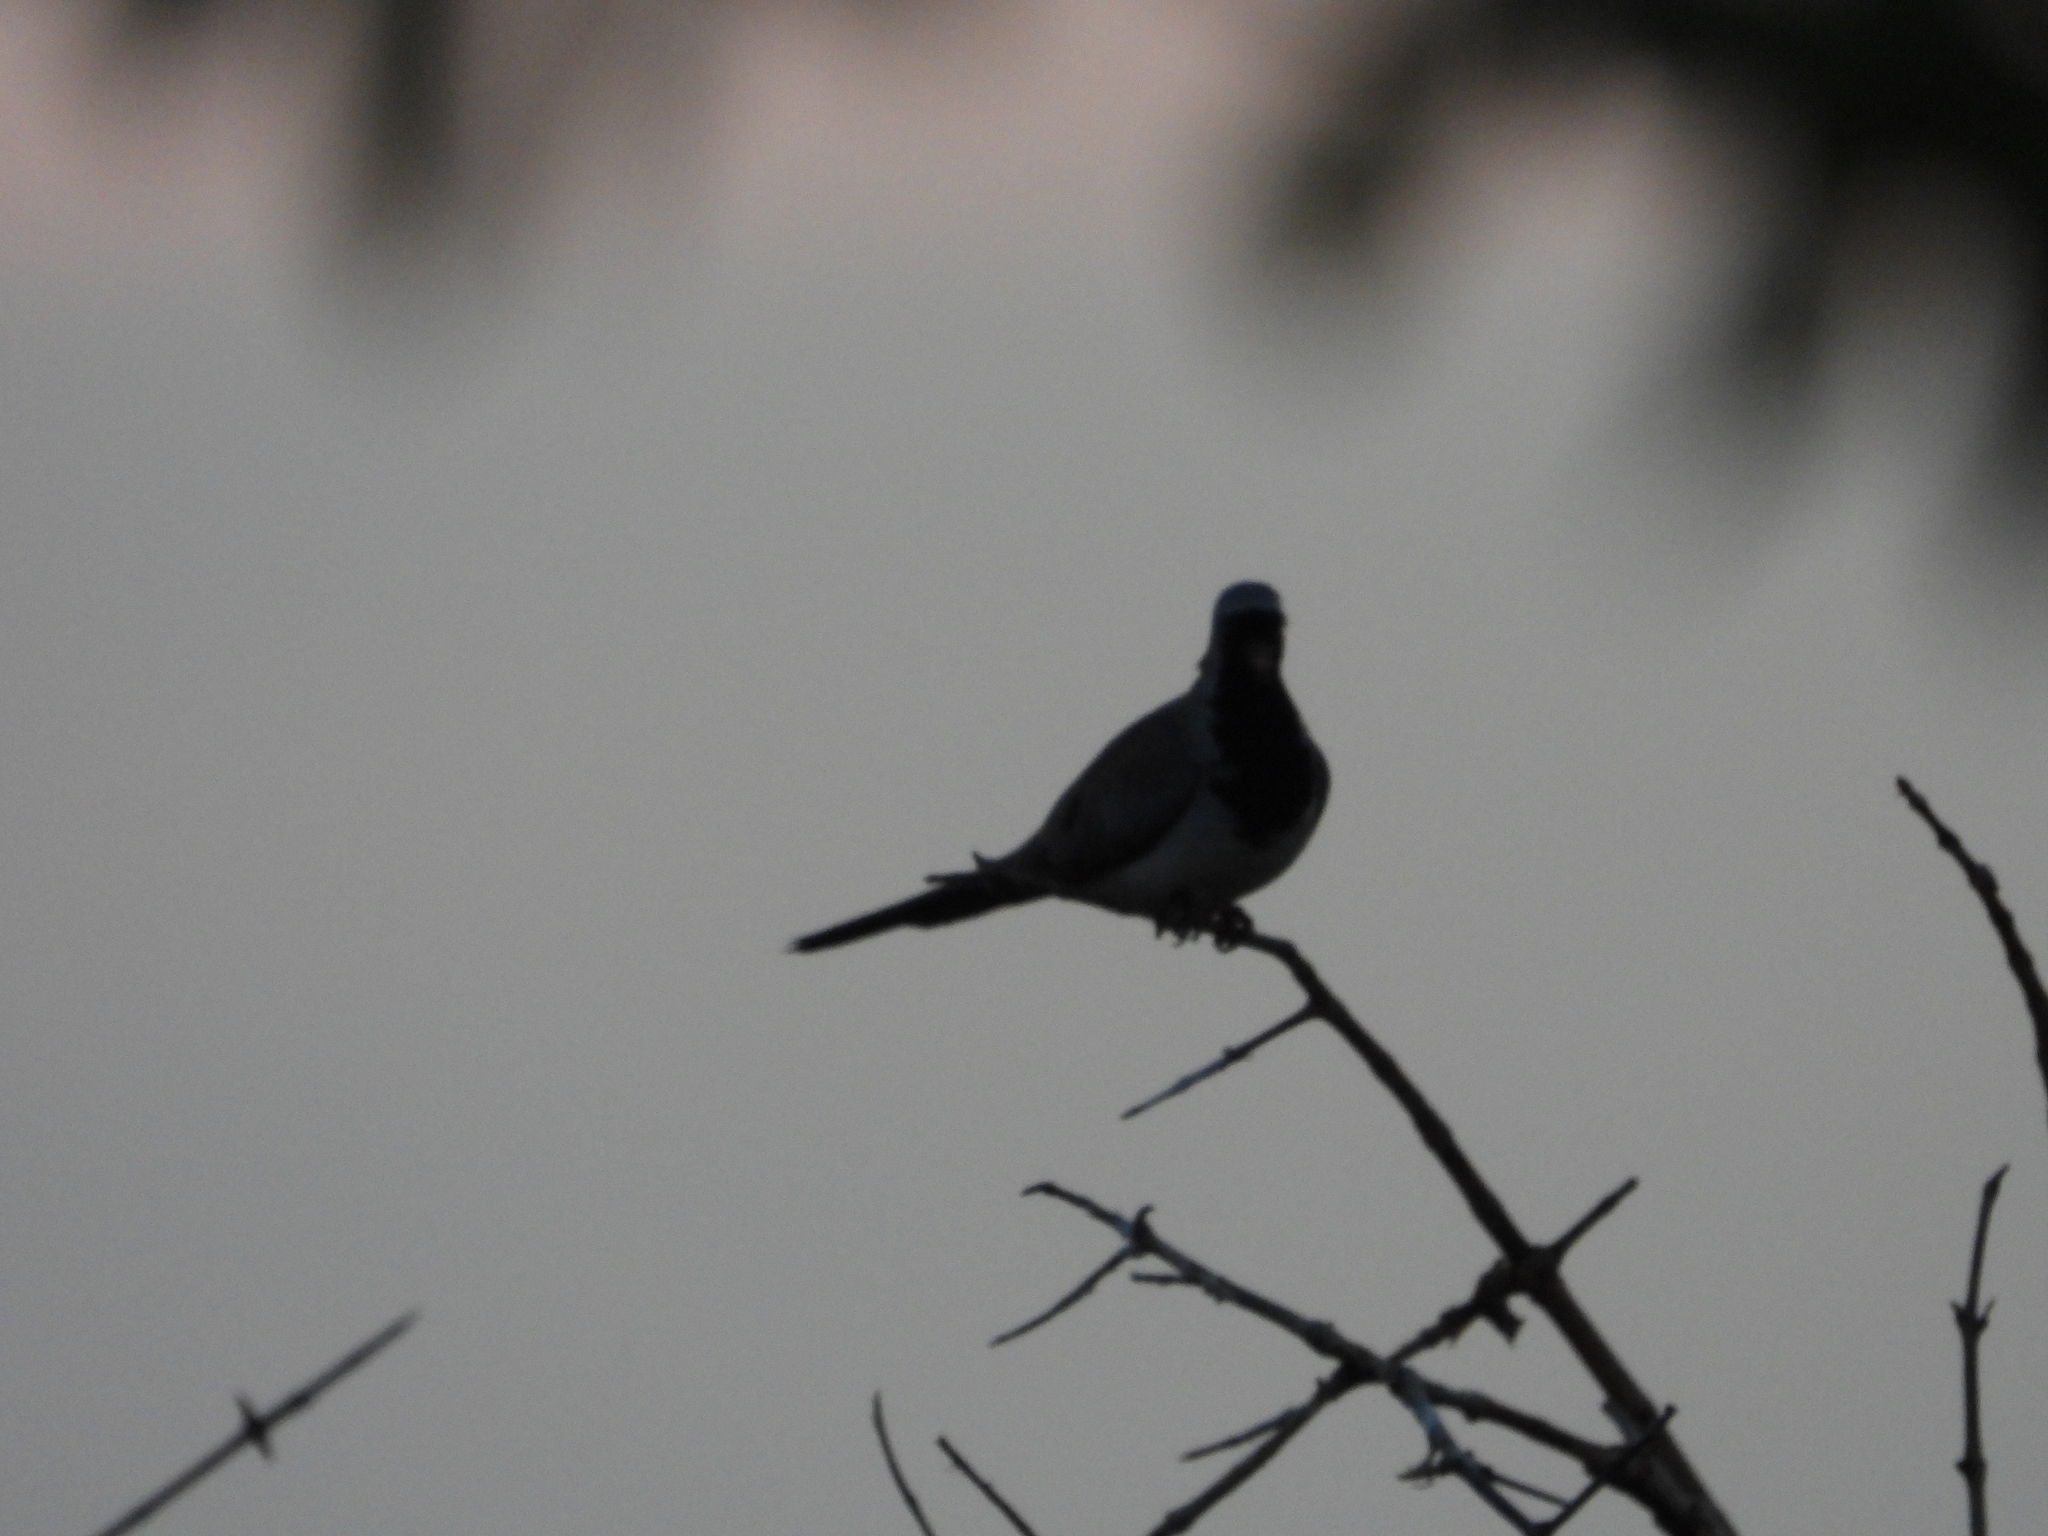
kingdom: Animalia
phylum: Chordata
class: Aves
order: Columbiformes
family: Columbidae
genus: Oena
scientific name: Oena capensis
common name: Namaqua dove
